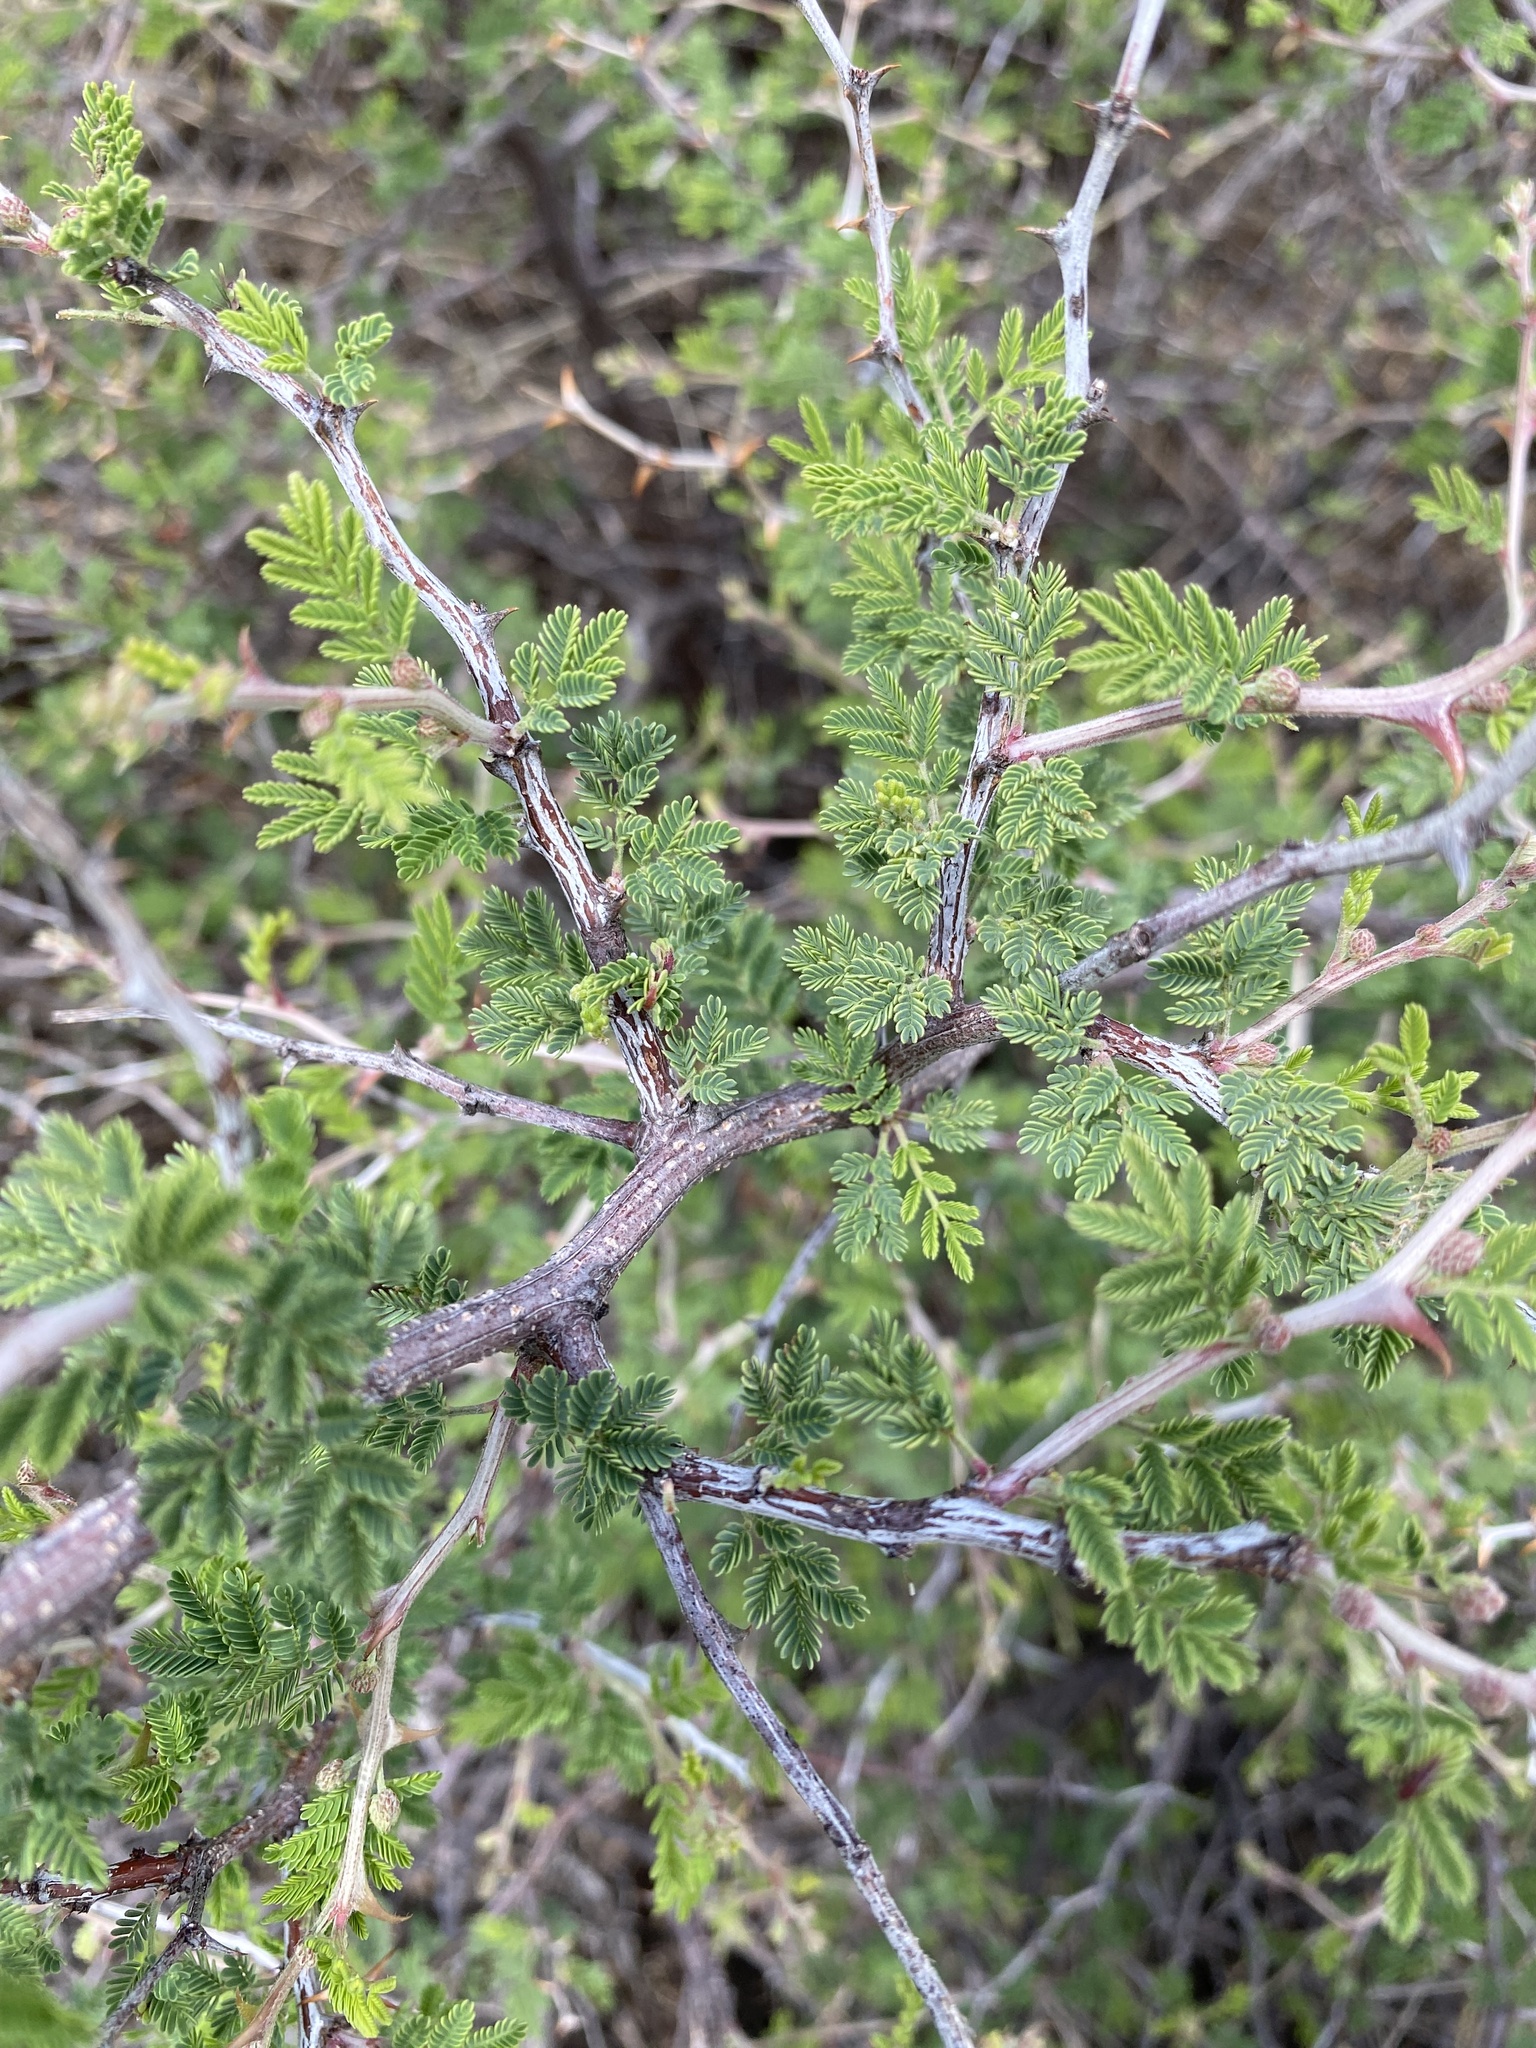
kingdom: Plantae
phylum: Tracheophyta
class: Magnoliopsida
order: Fabales
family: Fabaceae
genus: Mimosa
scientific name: Mimosa biuncifera
